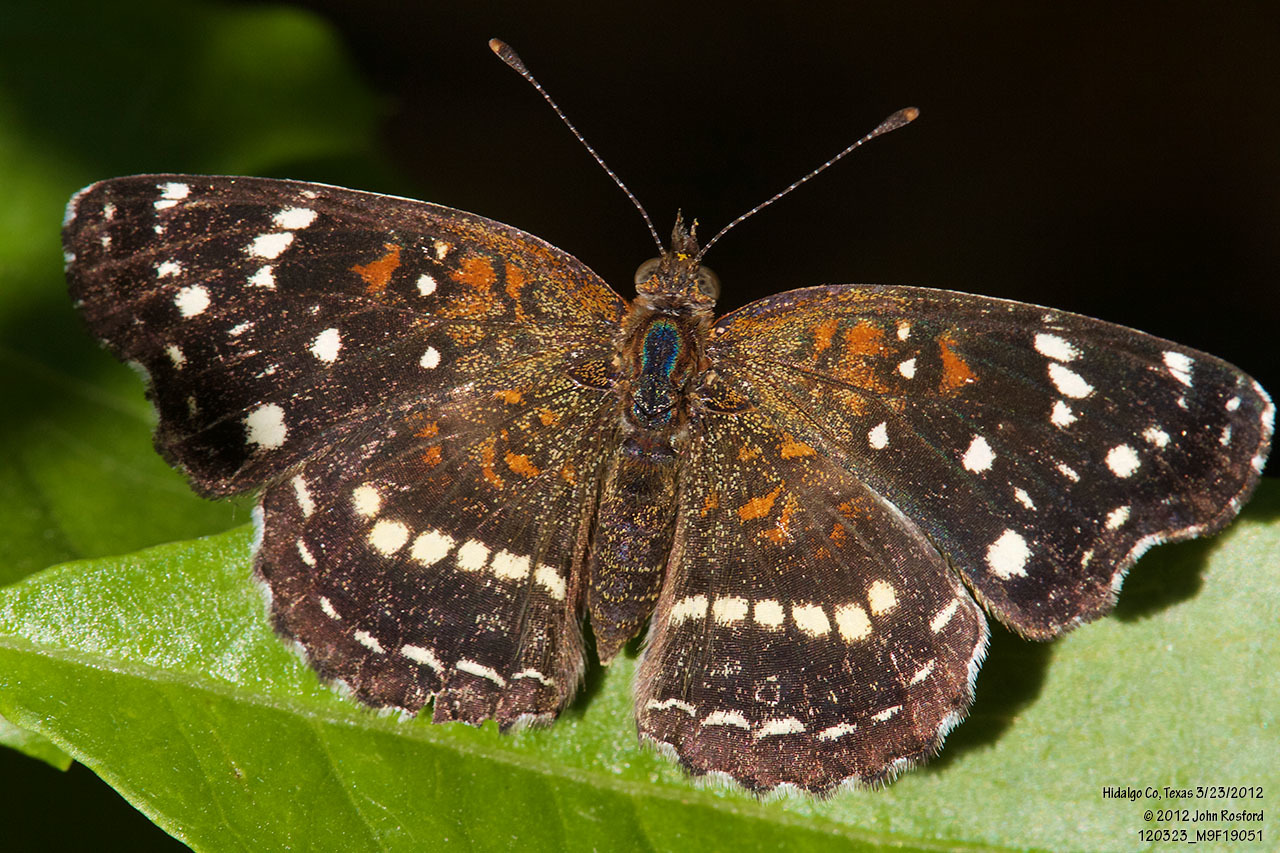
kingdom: Animalia
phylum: Arthropoda
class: Insecta
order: Lepidoptera
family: Nymphalidae
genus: Anthanassa
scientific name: Anthanassa texana
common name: Texan crescent
